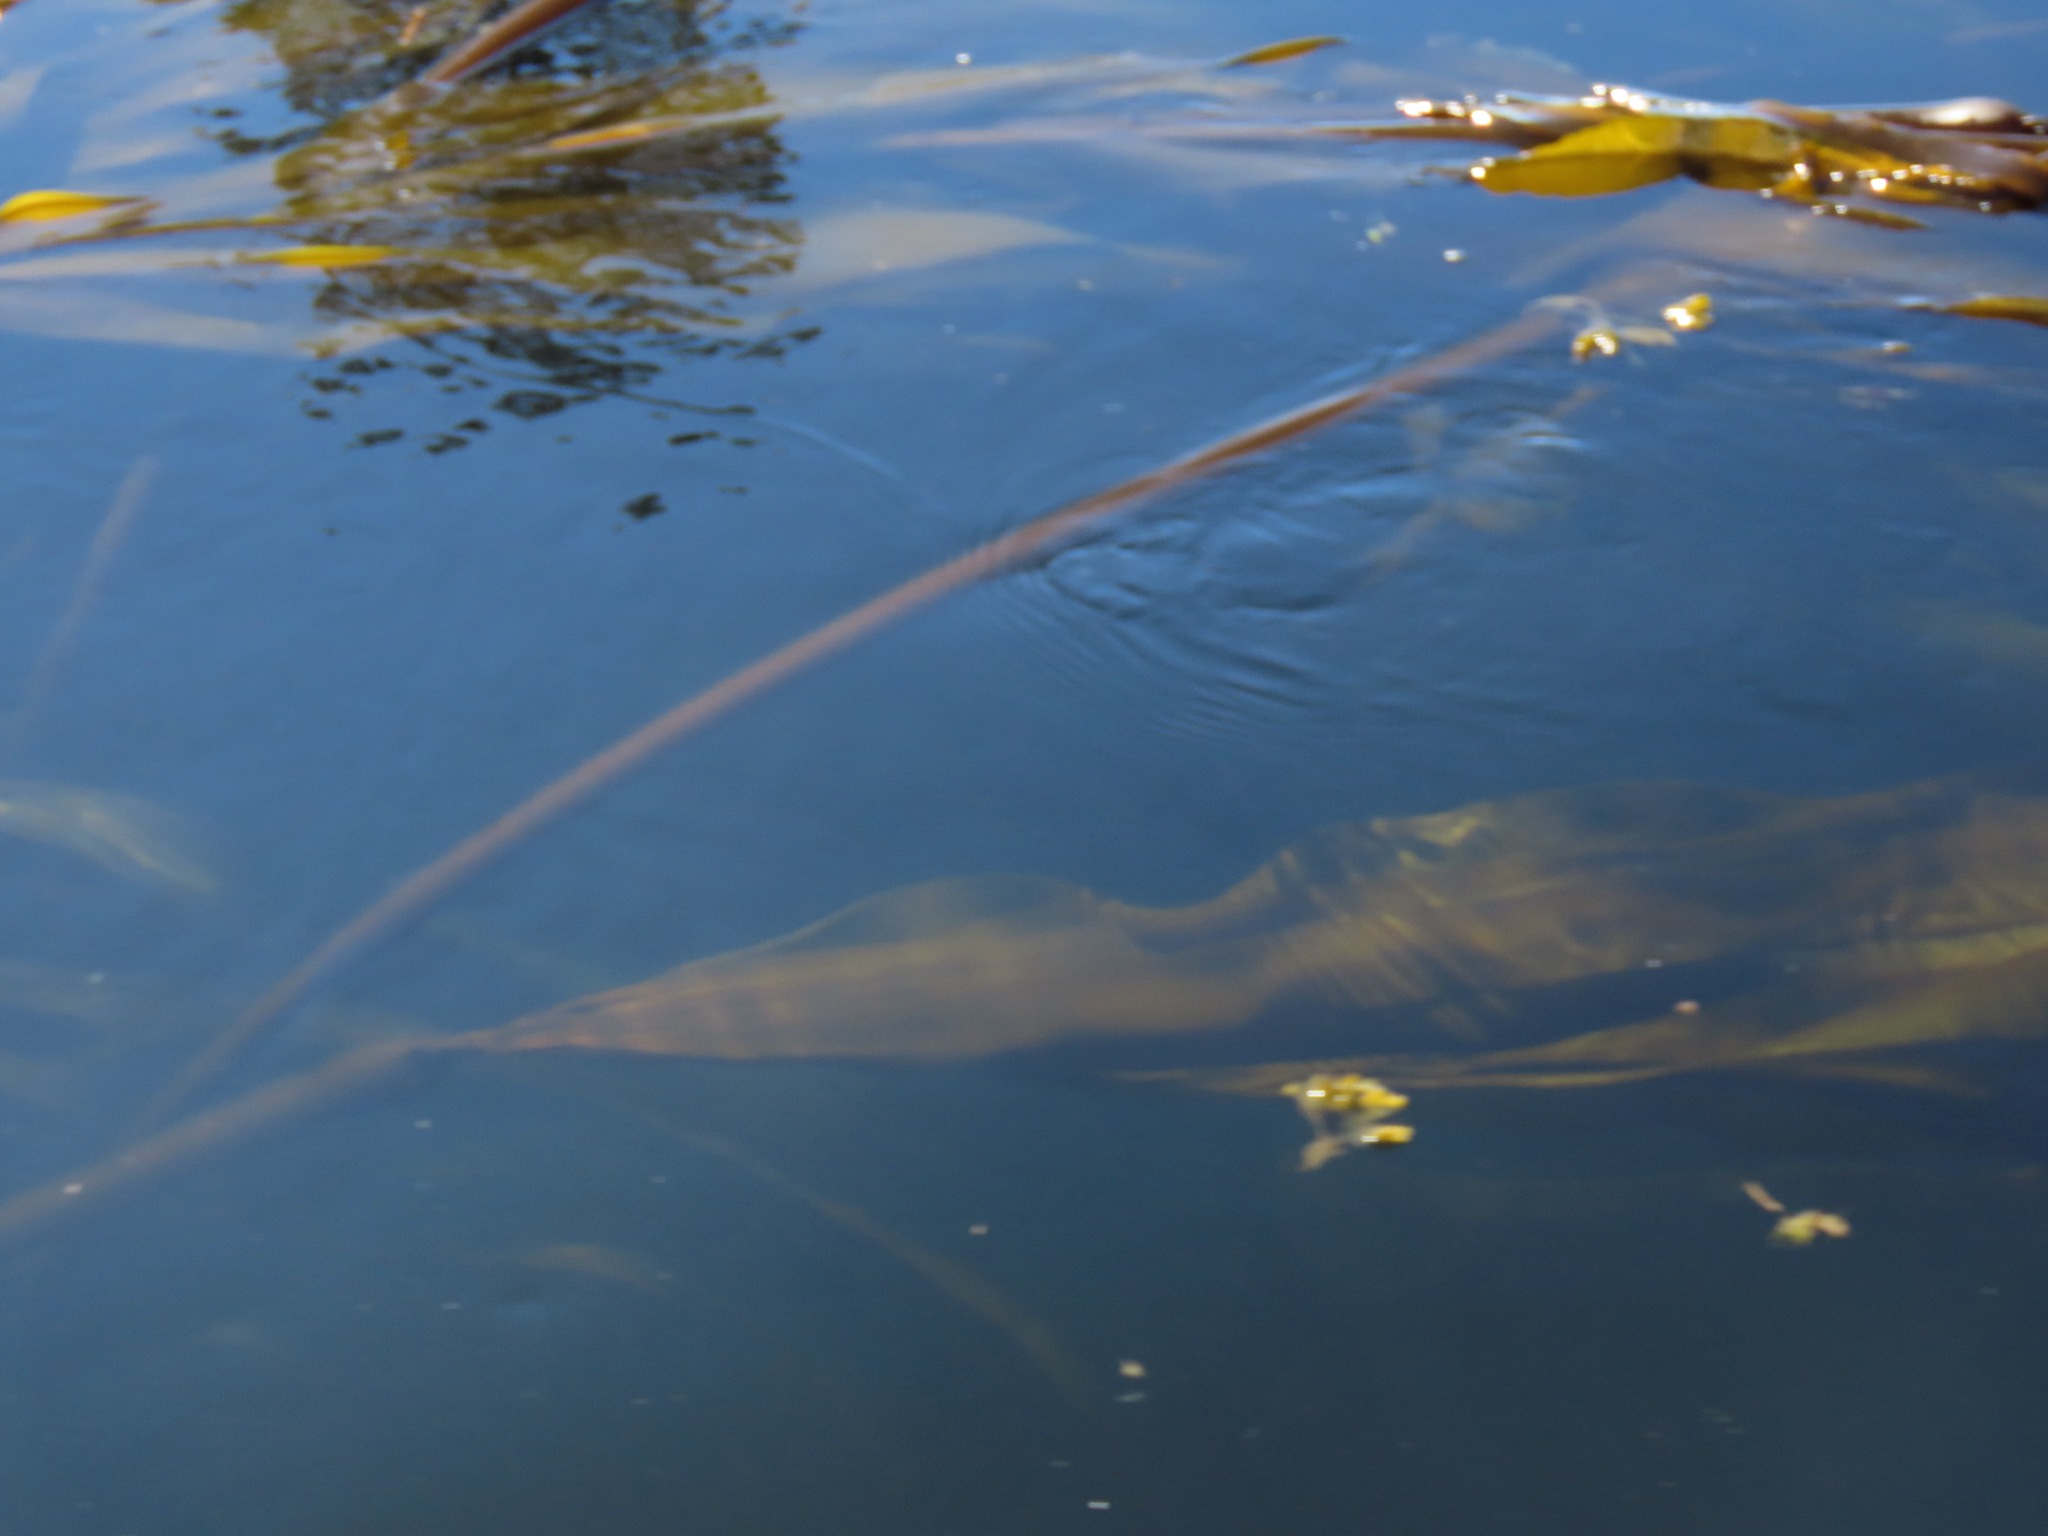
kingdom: Chromista
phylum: Ochrophyta
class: Phaeophyceae
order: Laminariales
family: Laminariaceae
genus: Nereocystis
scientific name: Nereocystis luetkeana
